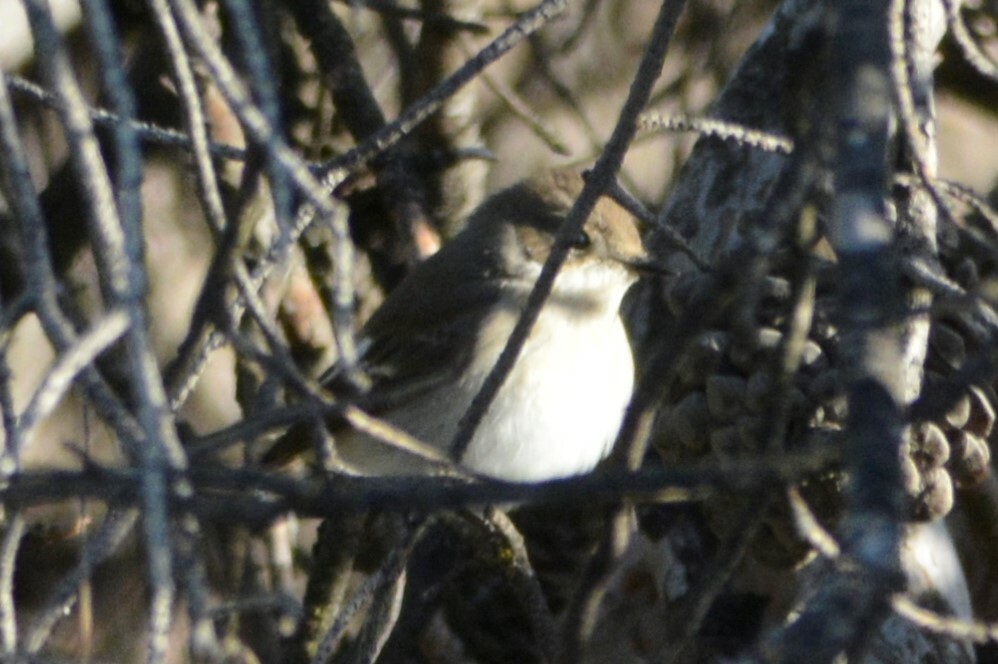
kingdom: Animalia
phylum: Chordata
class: Aves
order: Passeriformes
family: Muscicapidae
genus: Ficedula
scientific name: Ficedula hypoleuca
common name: European pied flycatcher
